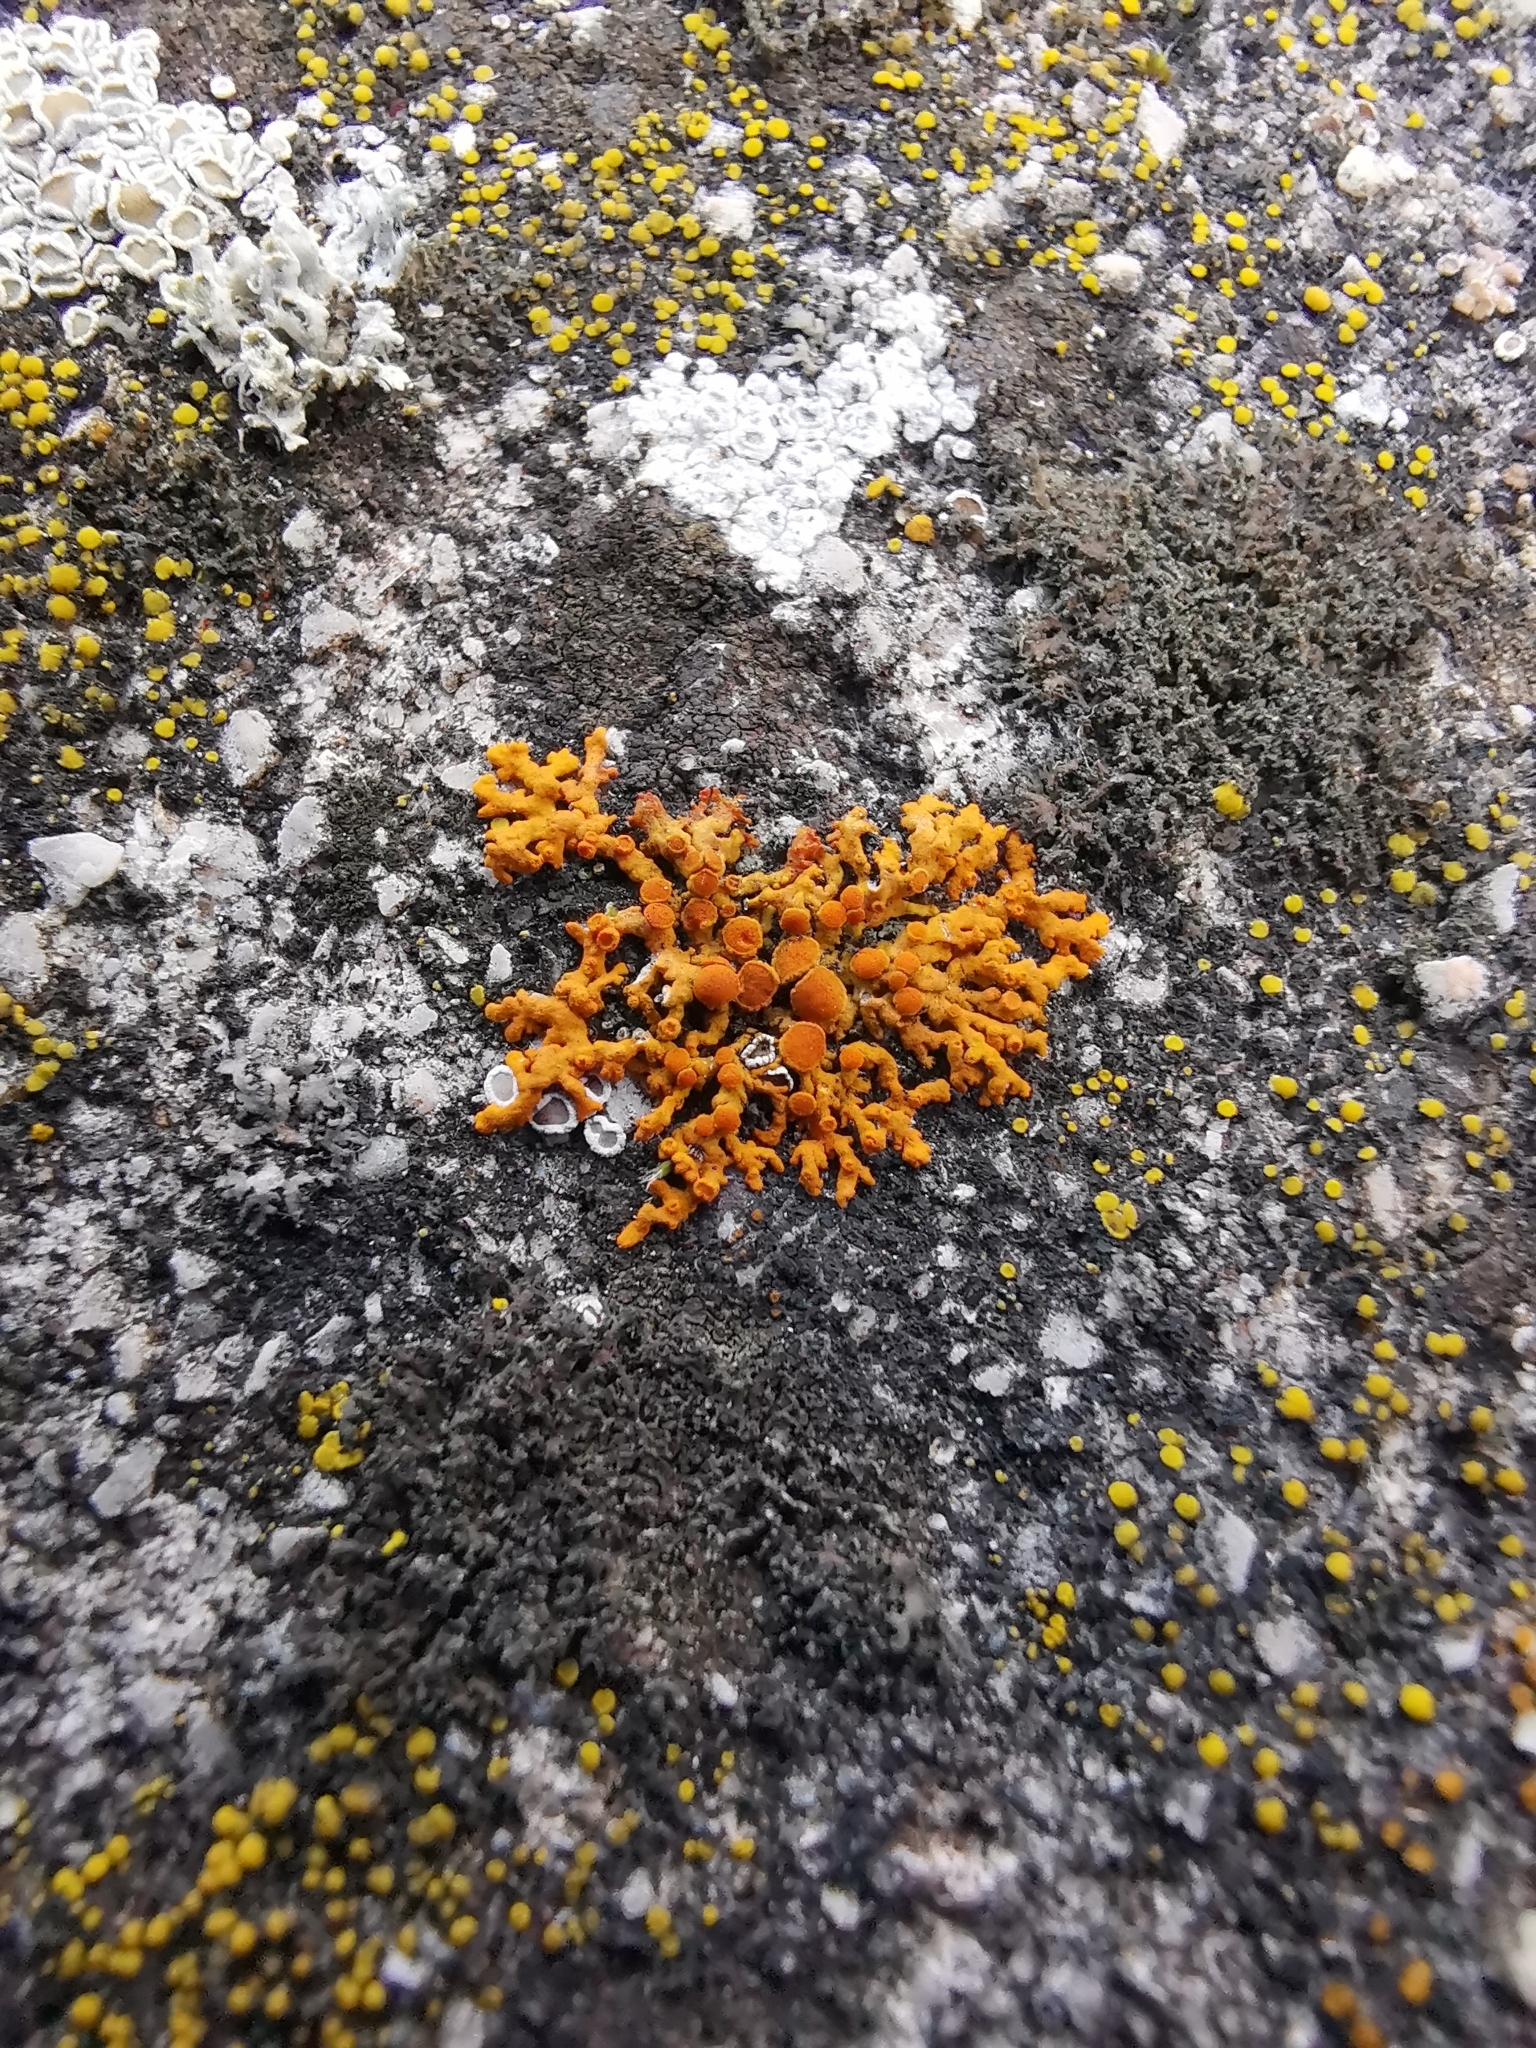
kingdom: Fungi
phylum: Ascomycota
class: Lecanoromycetes
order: Teloschistales
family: Teloschistaceae
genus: Xanthoria
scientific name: Xanthoria elegans
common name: Elegant sunburst lichen
